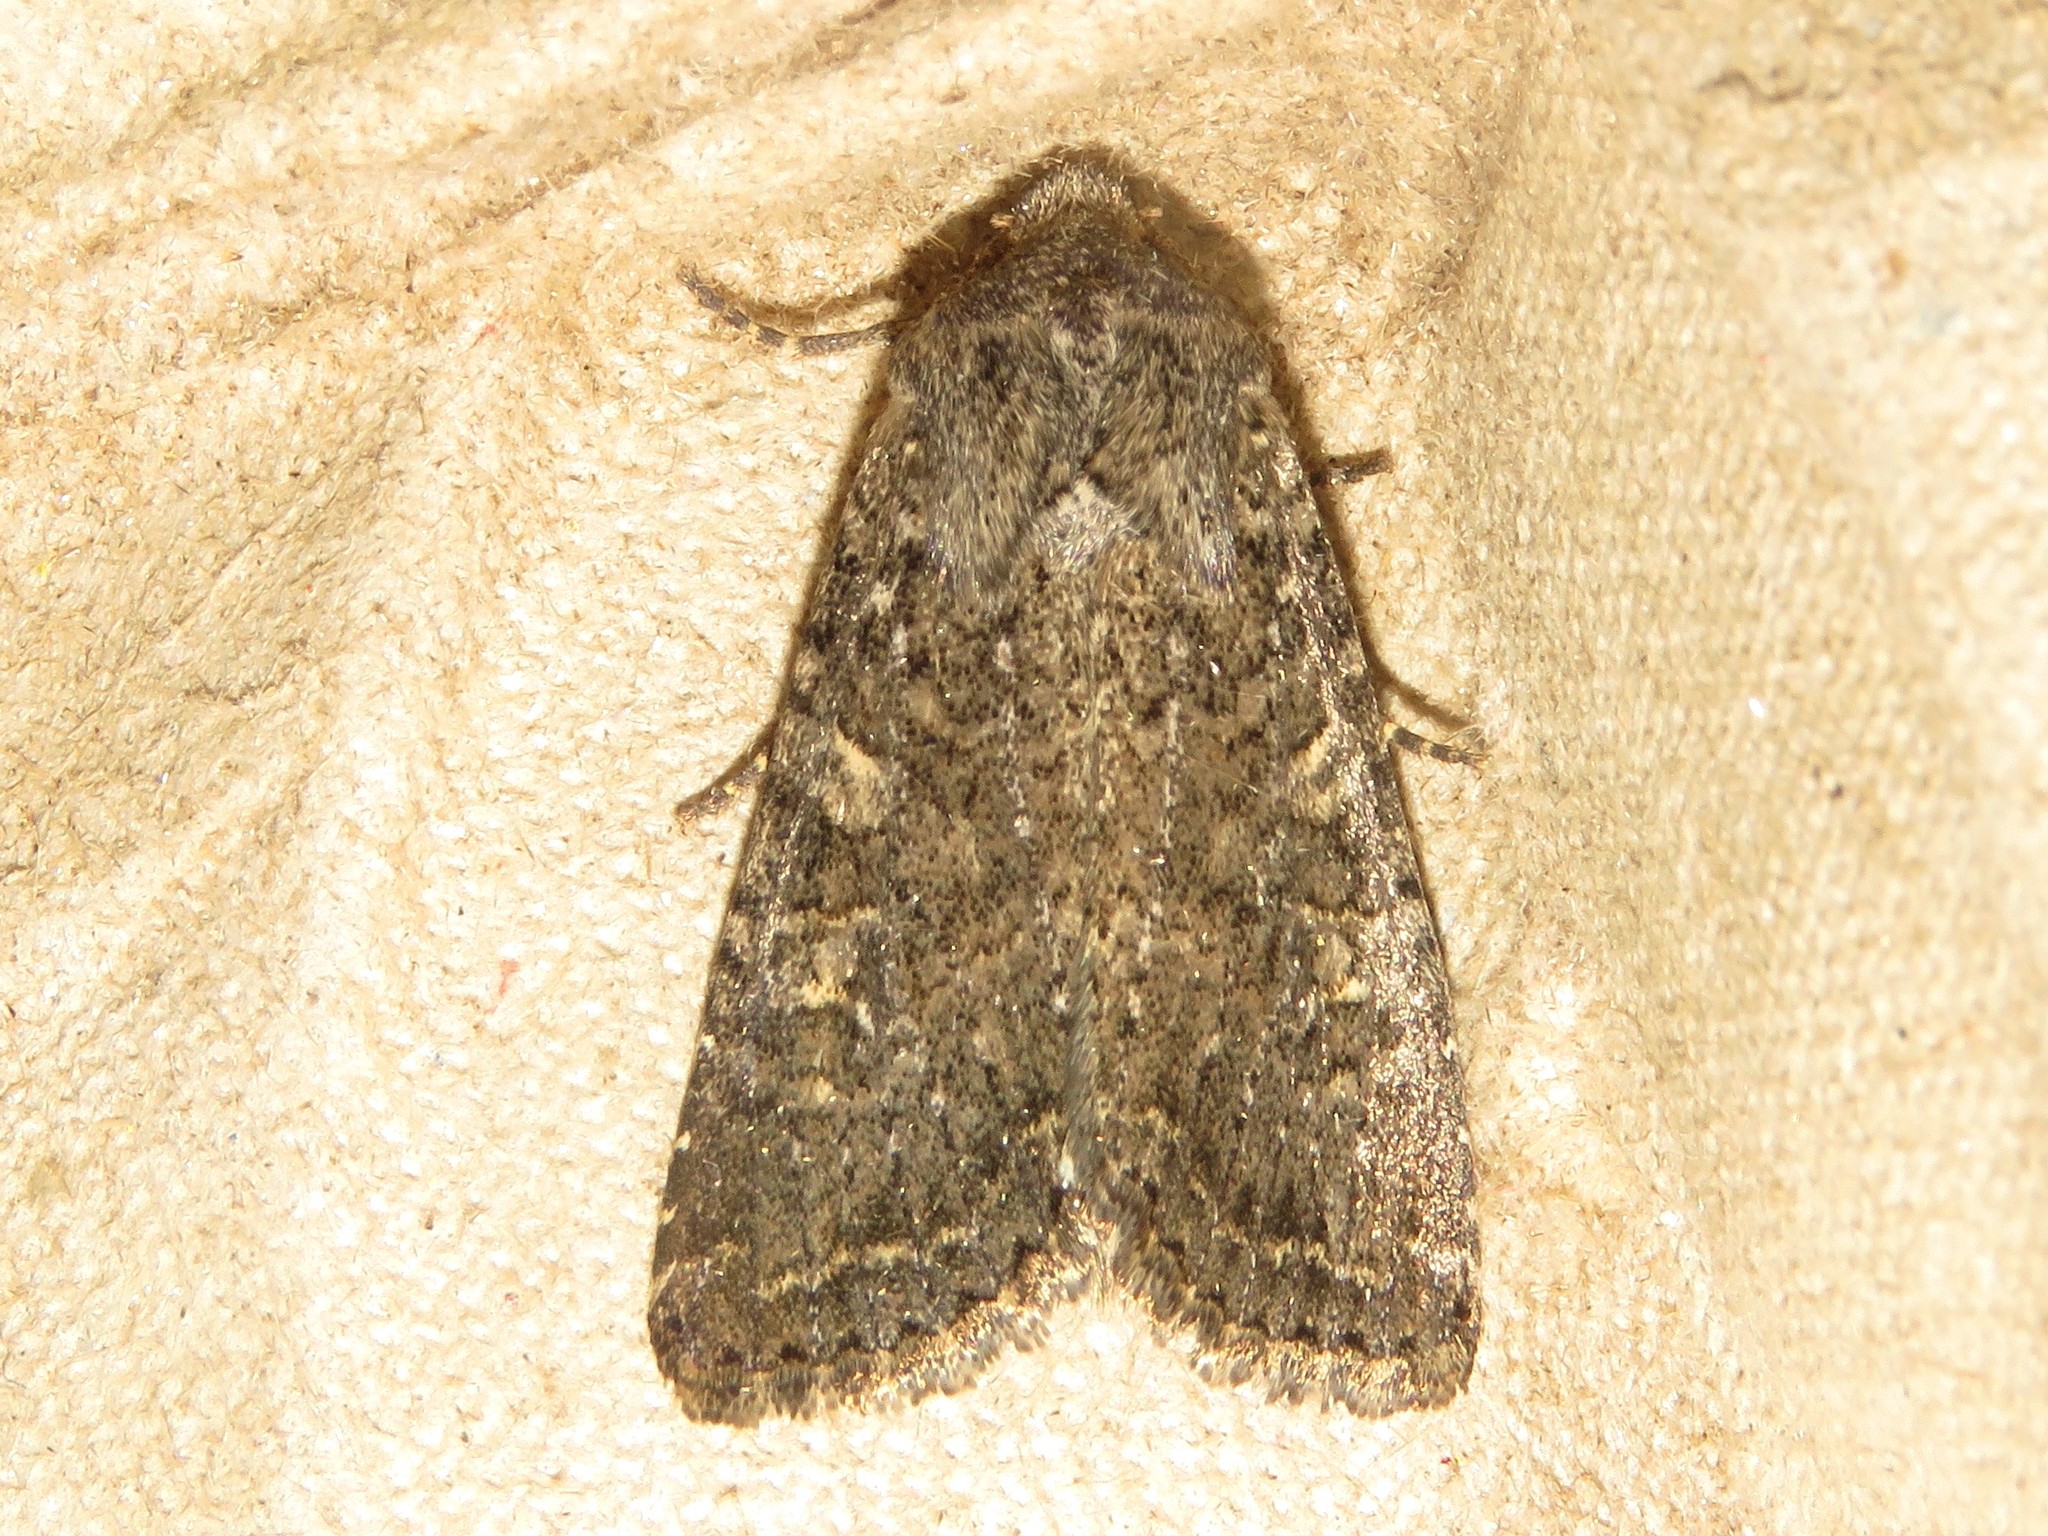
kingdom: Animalia
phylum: Arthropoda
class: Insecta
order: Lepidoptera
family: Noctuidae
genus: Apamea
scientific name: Apamea devastator
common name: Glassy cutworm
